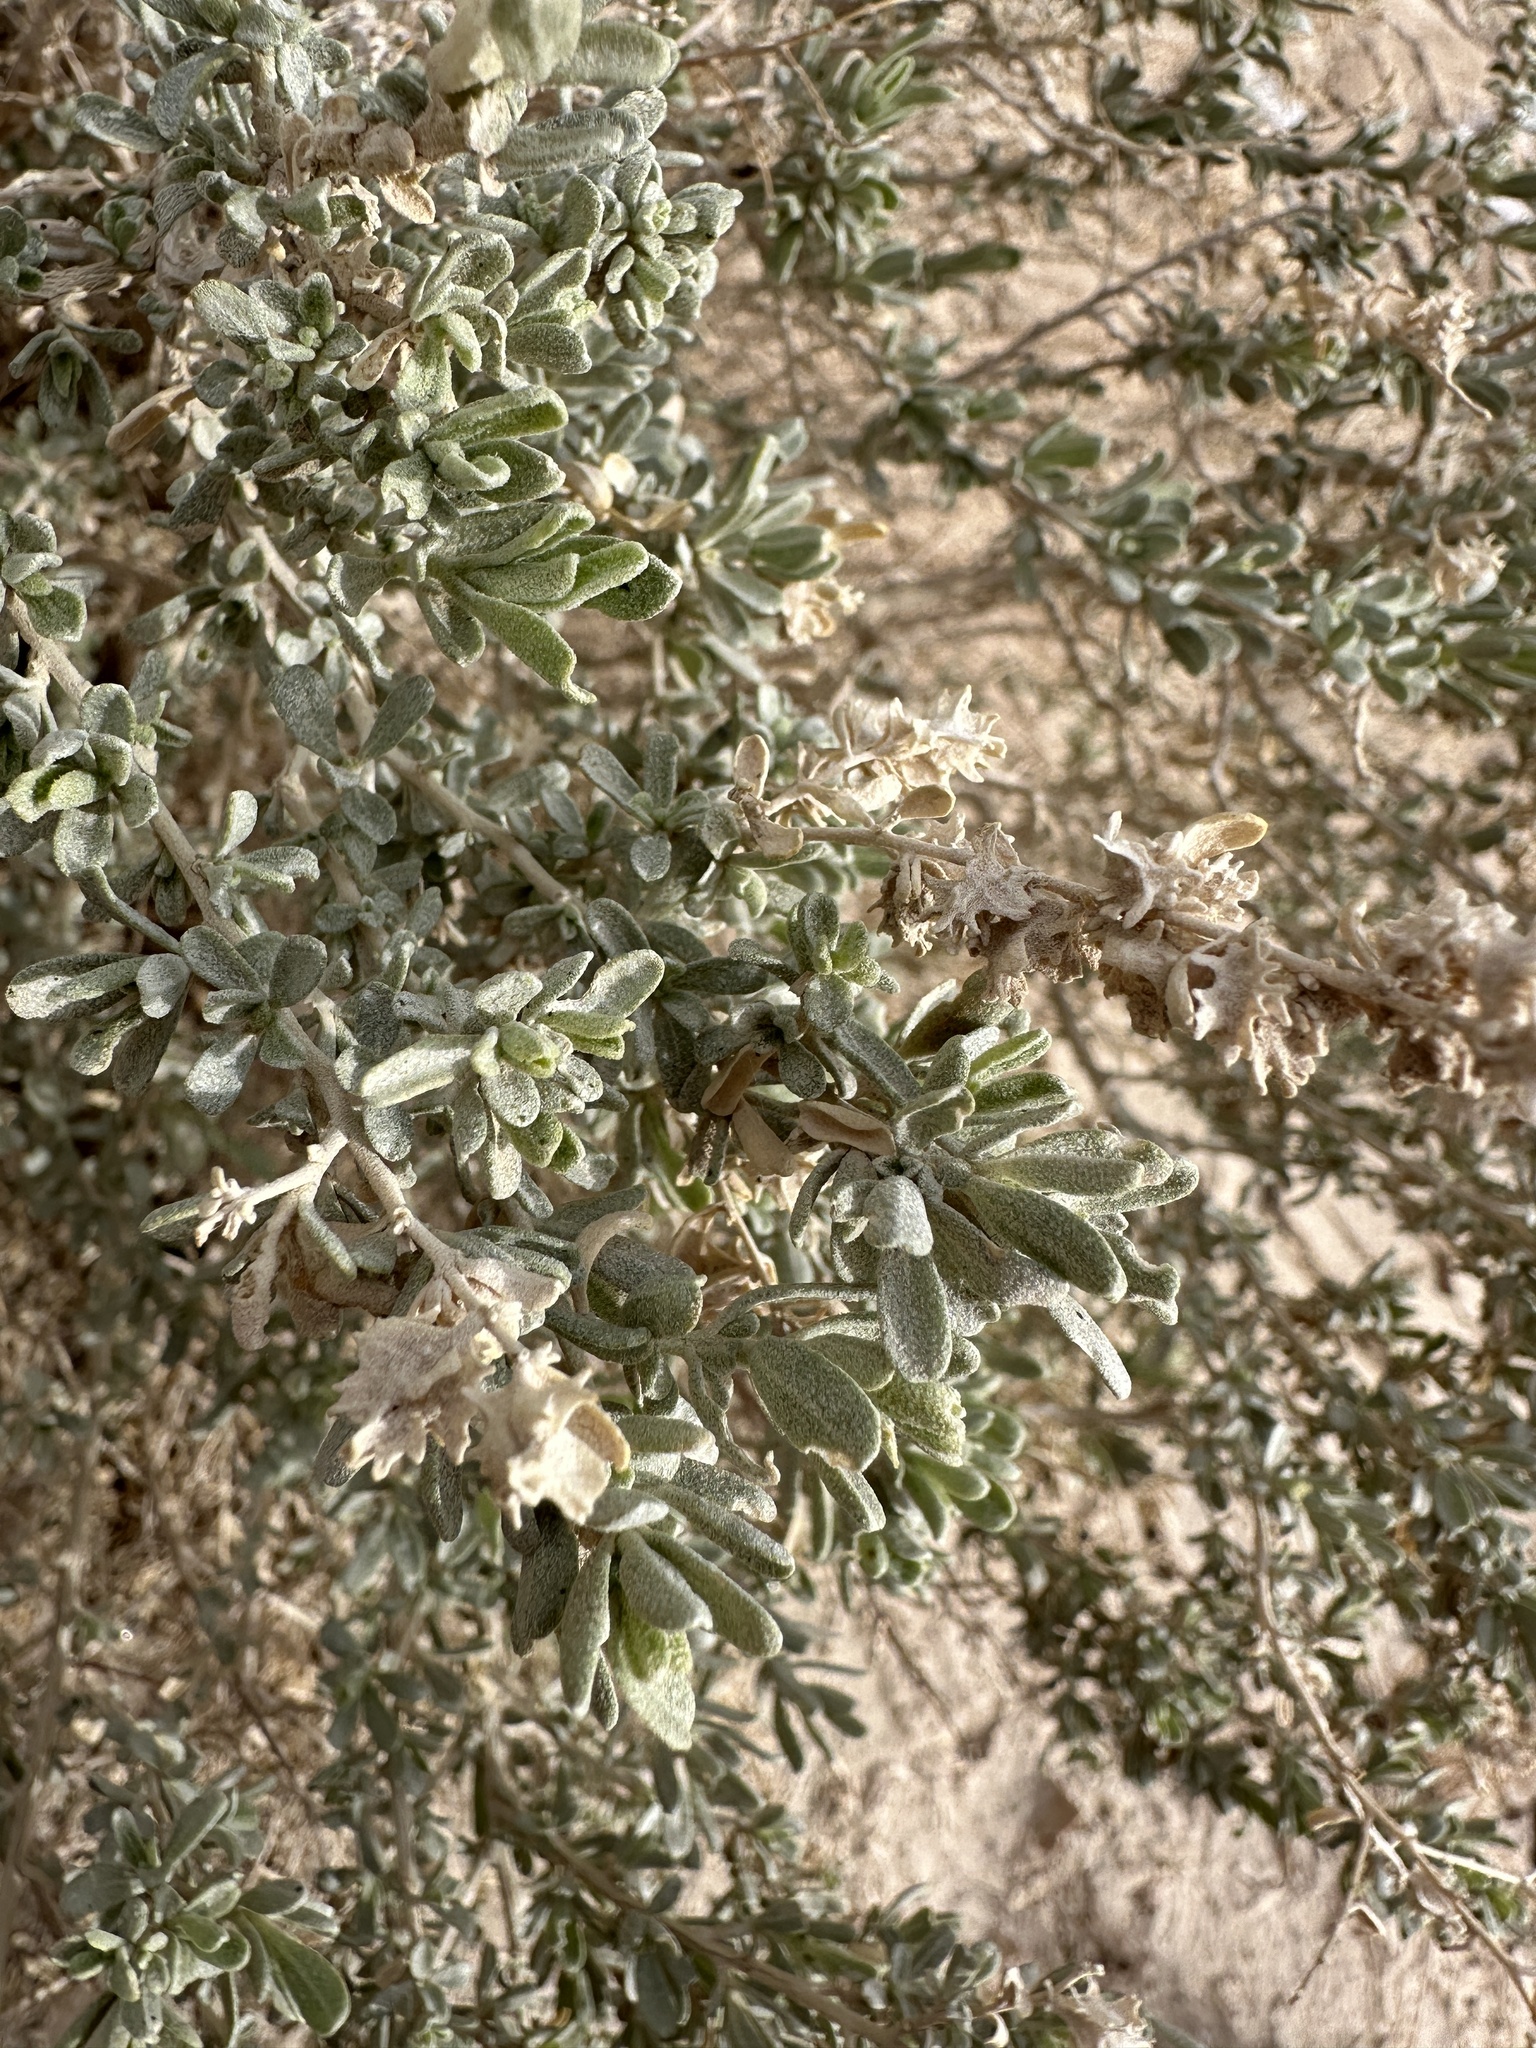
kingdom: Plantae
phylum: Tracheophyta
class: Magnoliopsida
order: Caryophyllales
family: Amaranthaceae
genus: Atriplex
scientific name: Atriplex confertifolia
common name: Shadscale
